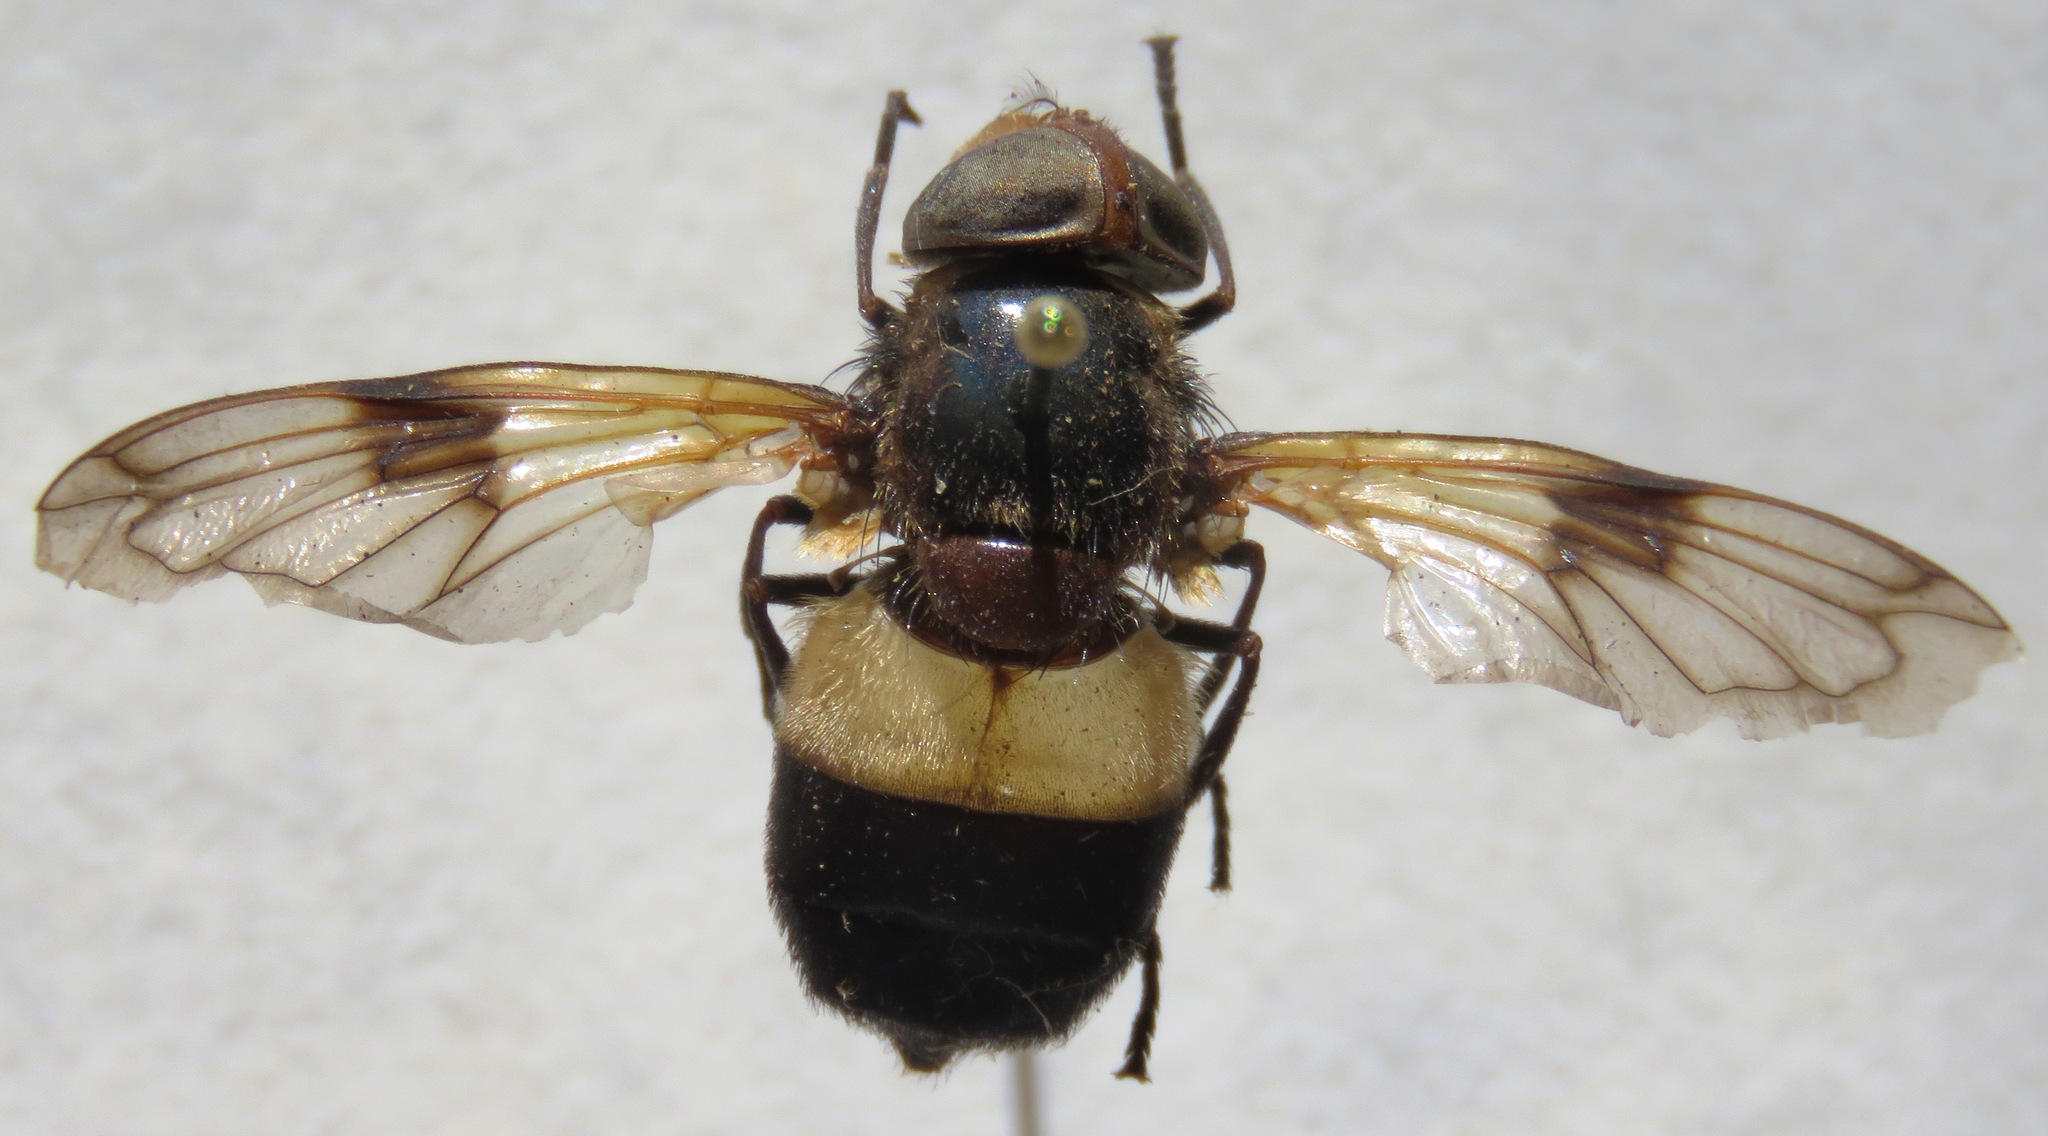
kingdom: Animalia
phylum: Arthropoda
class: Insecta
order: Diptera
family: Syrphidae
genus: Volucella
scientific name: Volucella pellucens
